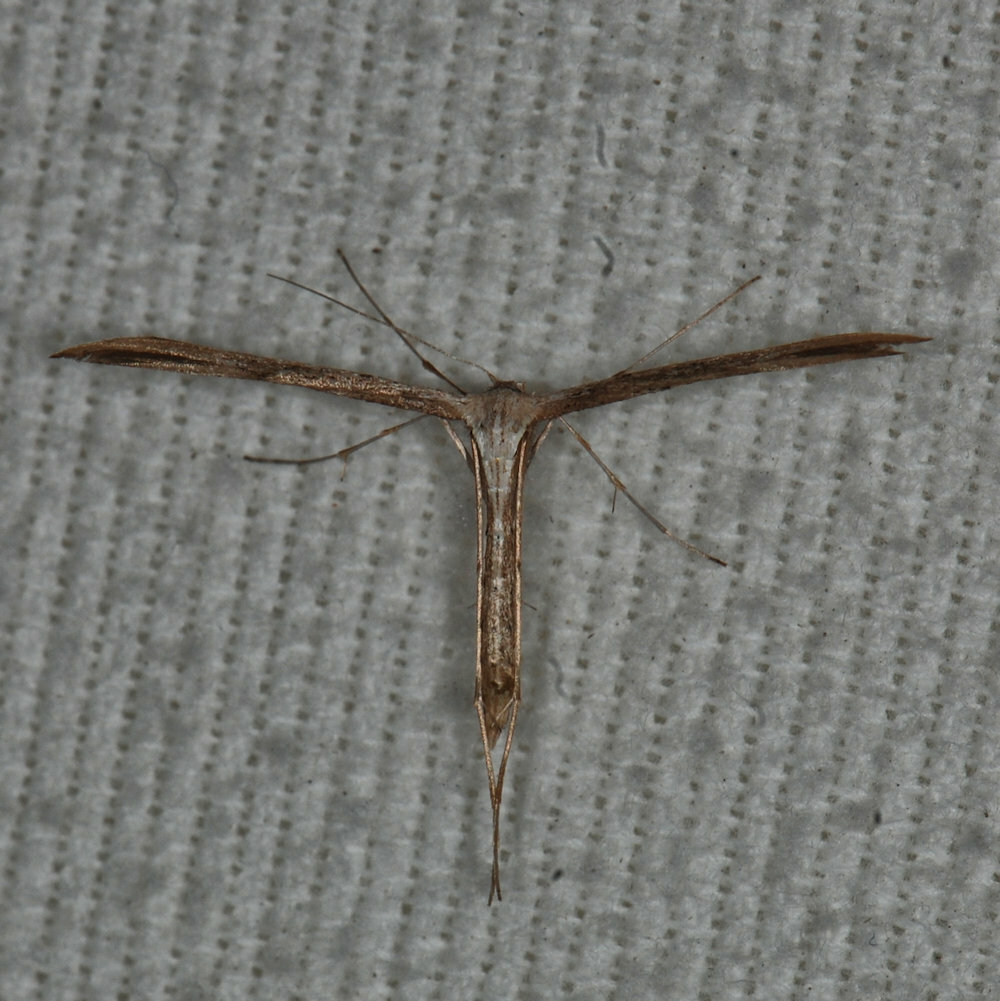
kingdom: Animalia
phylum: Arthropoda
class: Insecta
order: Lepidoptera
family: Pterophoridae
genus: Emmelina
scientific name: Emmelina monodactyla
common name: Common plume
